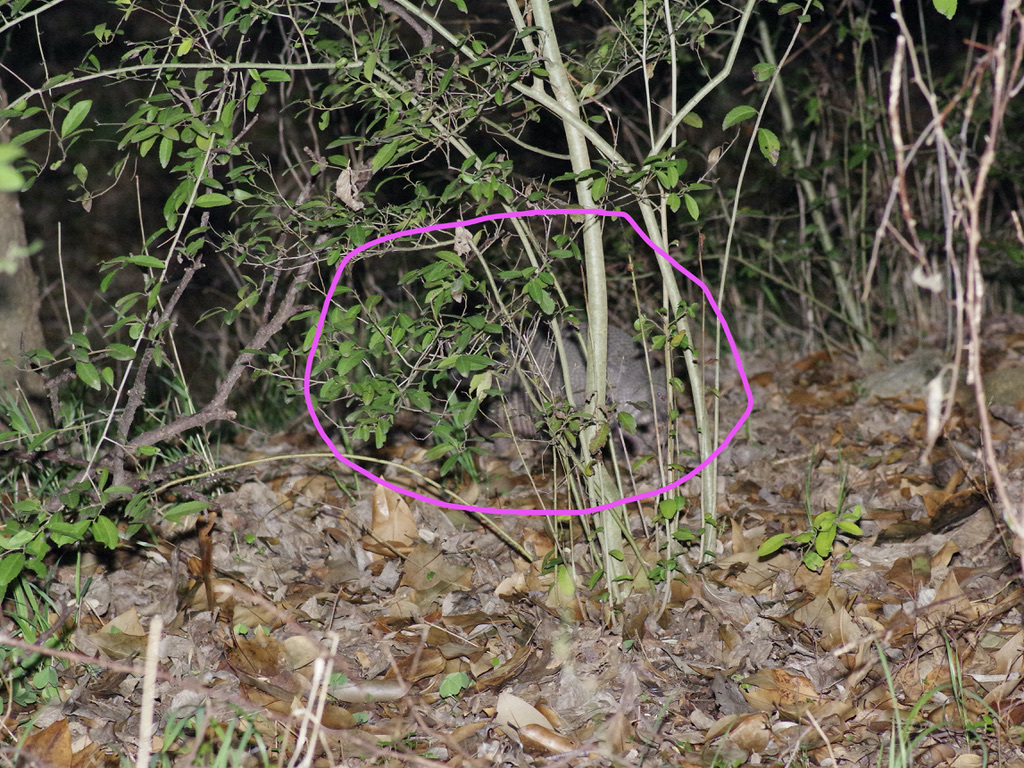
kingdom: Animalia
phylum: Chordata
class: Mammalia
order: Cingulata
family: Dasypodidae
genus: Dasypus
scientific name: Dasypus novemcinctus
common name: Nine-banded armadillo
